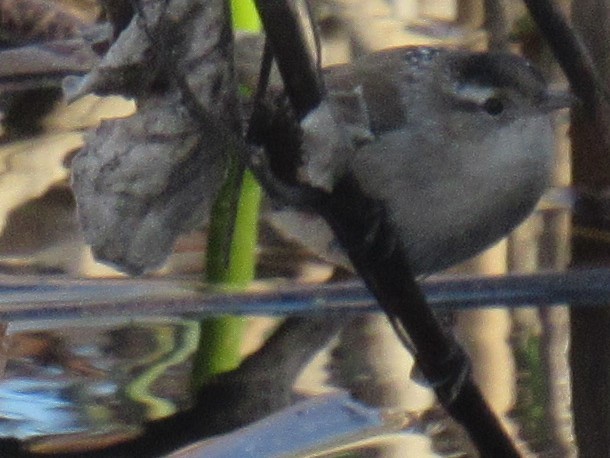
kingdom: Animalia
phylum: Chordata
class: Aves
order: Passeriformes
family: Troglodytidae
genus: Cistothorus
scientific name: Cistothorus palustris
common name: Marsh wren
